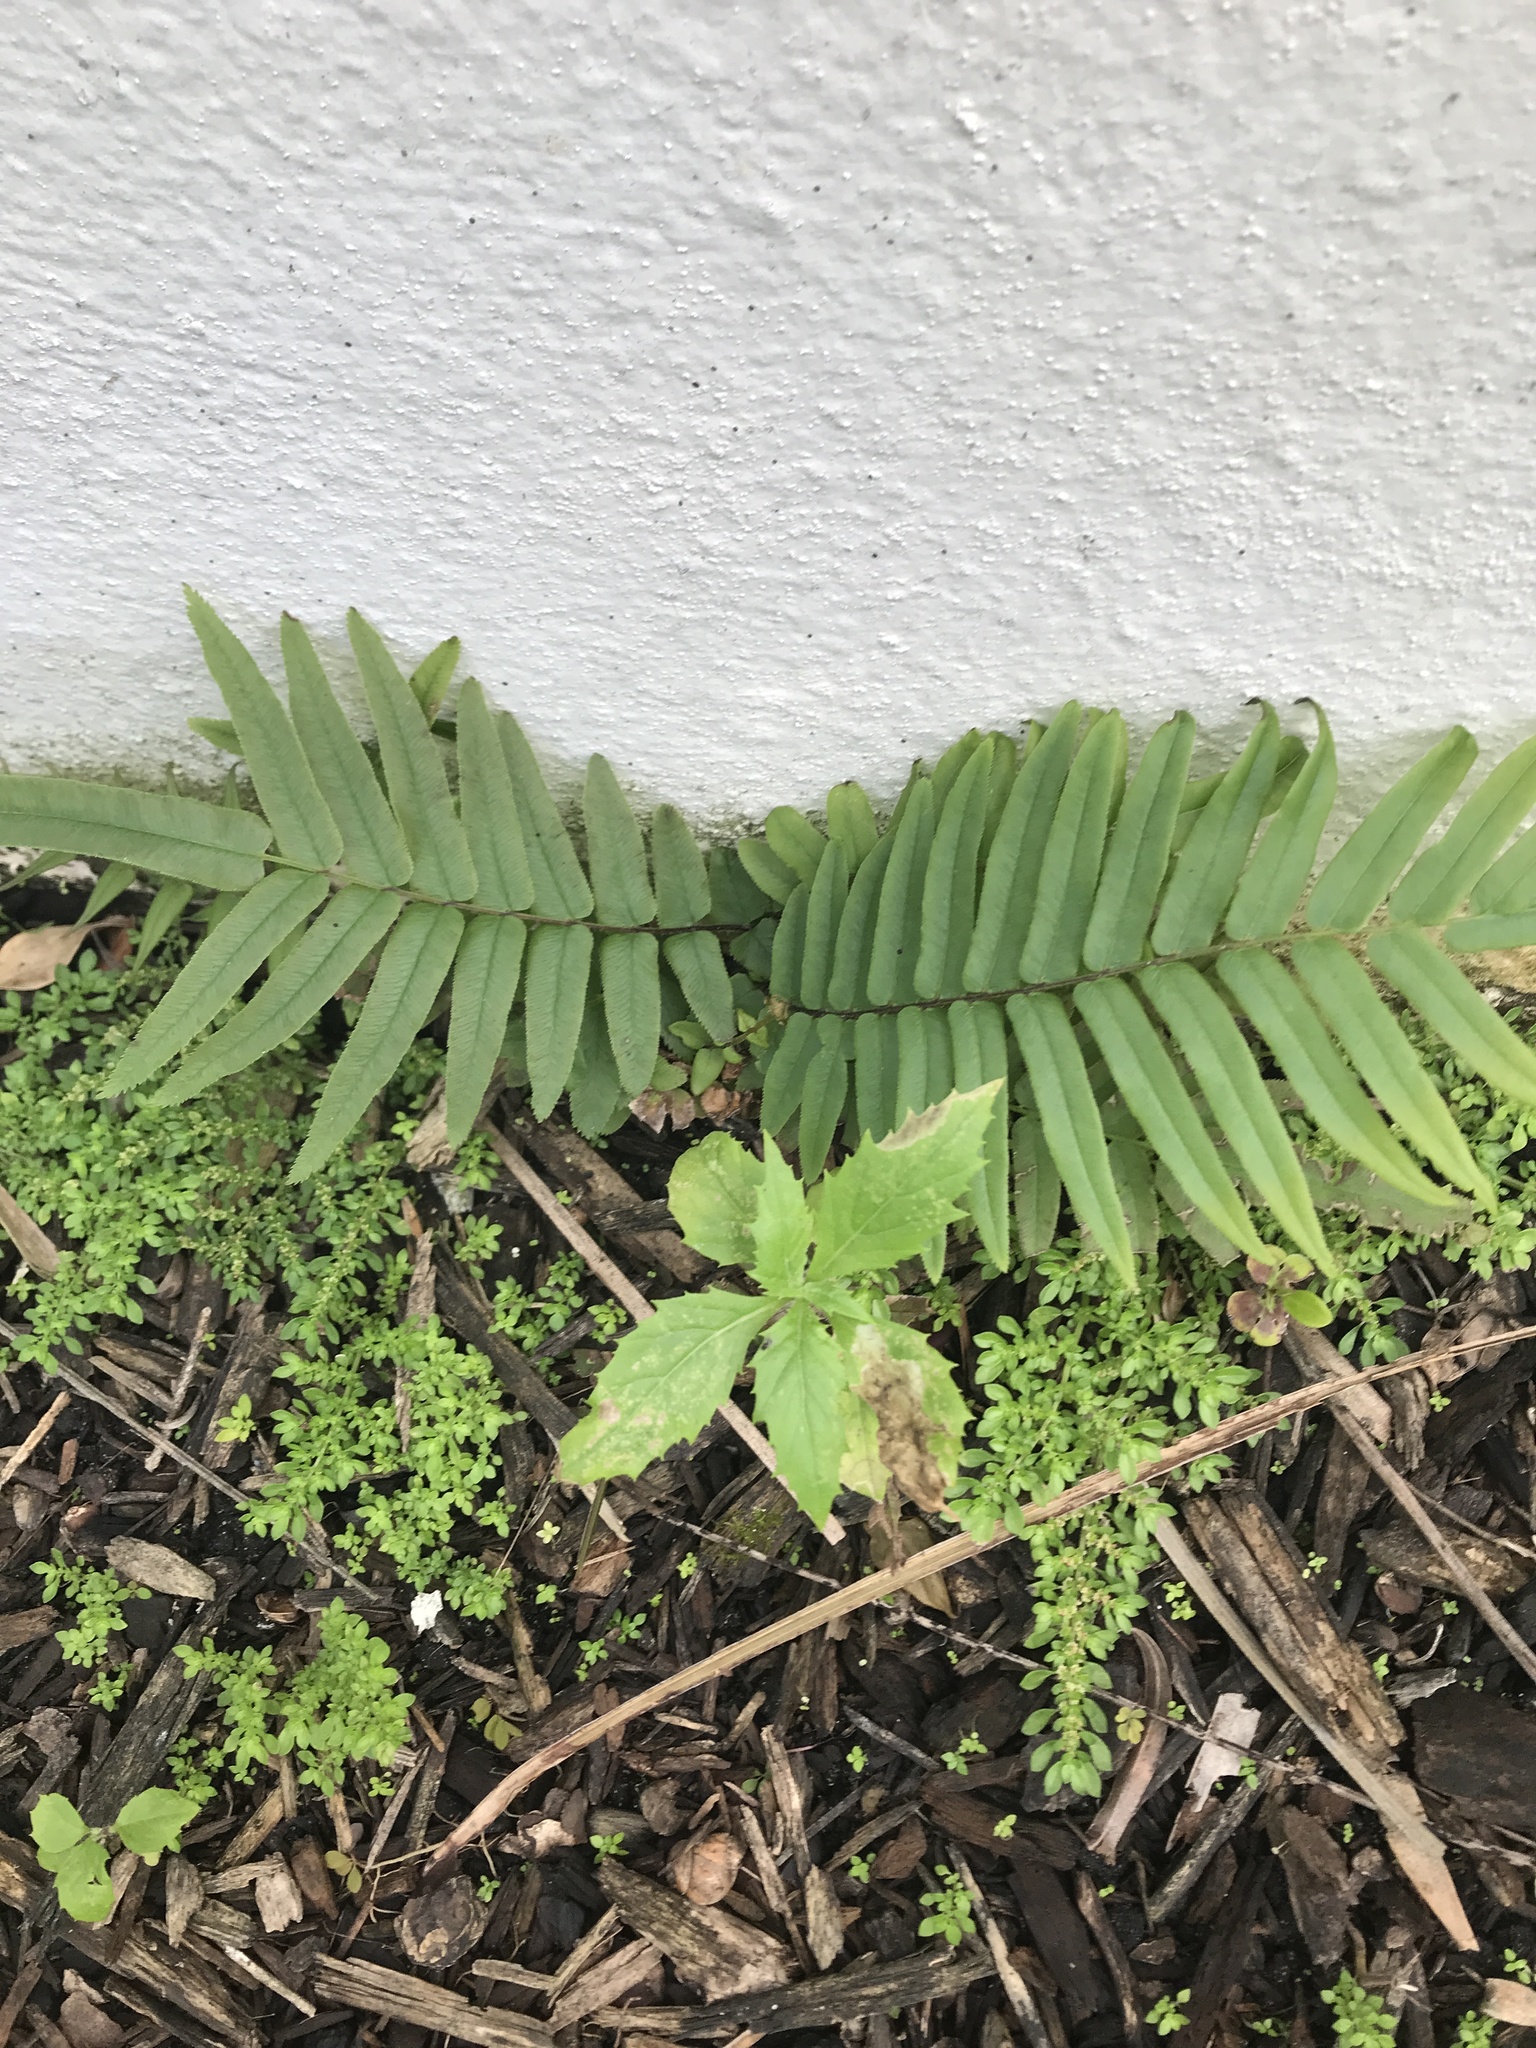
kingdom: Plantae
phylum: Tracheophyta
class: Polypodiopsida
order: Polypodiales
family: Pteridaceae
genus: Pteris
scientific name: Pteris vittata
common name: Ladder brake
